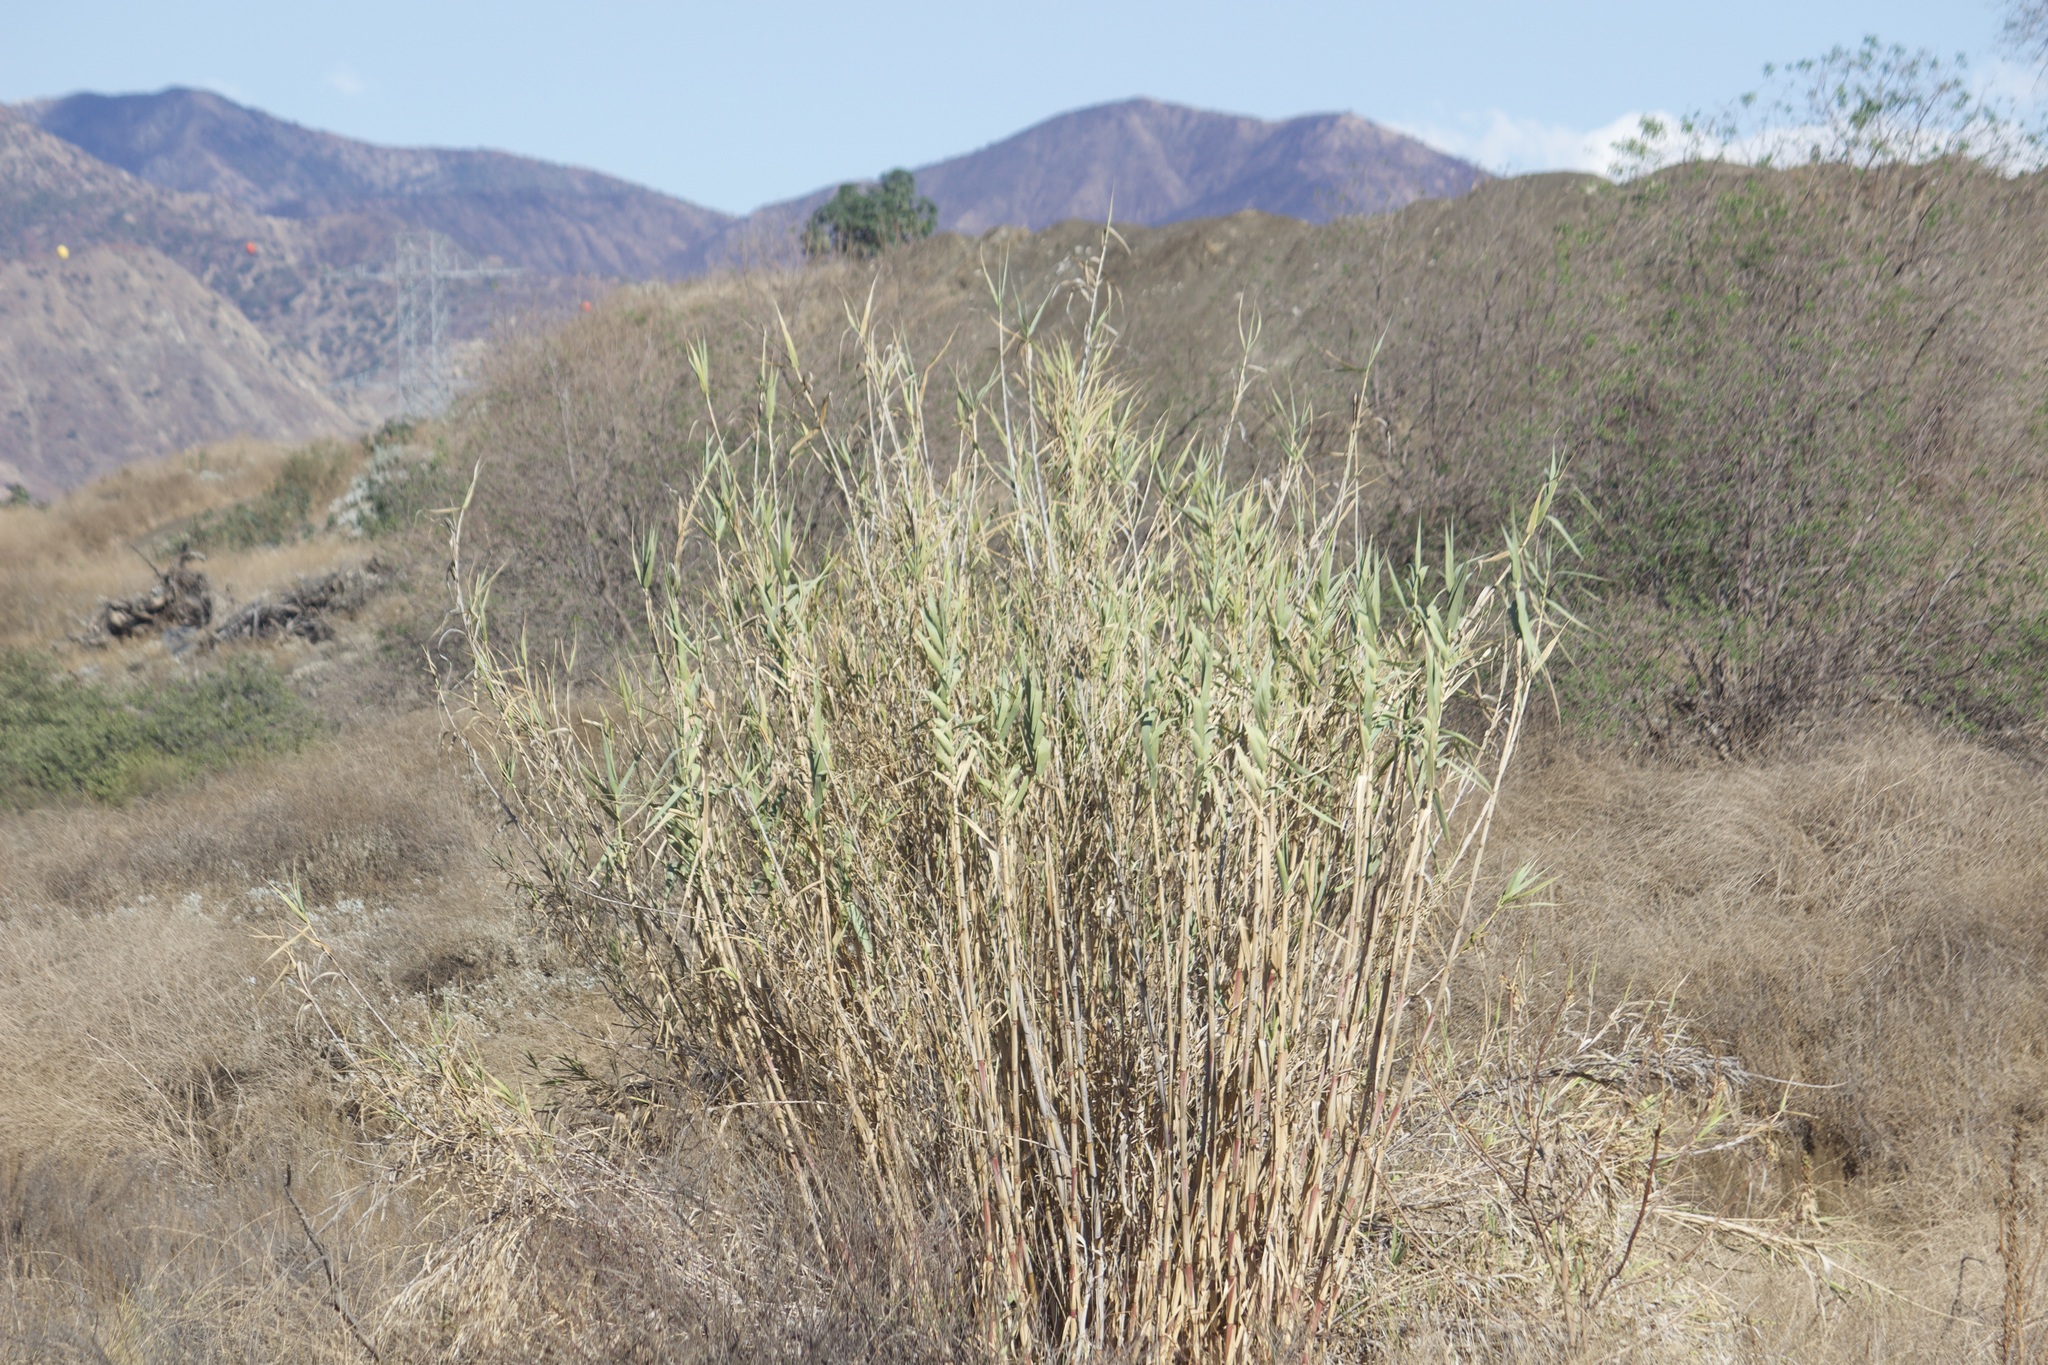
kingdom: Plantae
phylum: Tracheophyta
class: Liliopsida
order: Poales
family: Poaceae
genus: Arundo
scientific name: Arundo donax
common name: Giant reed
